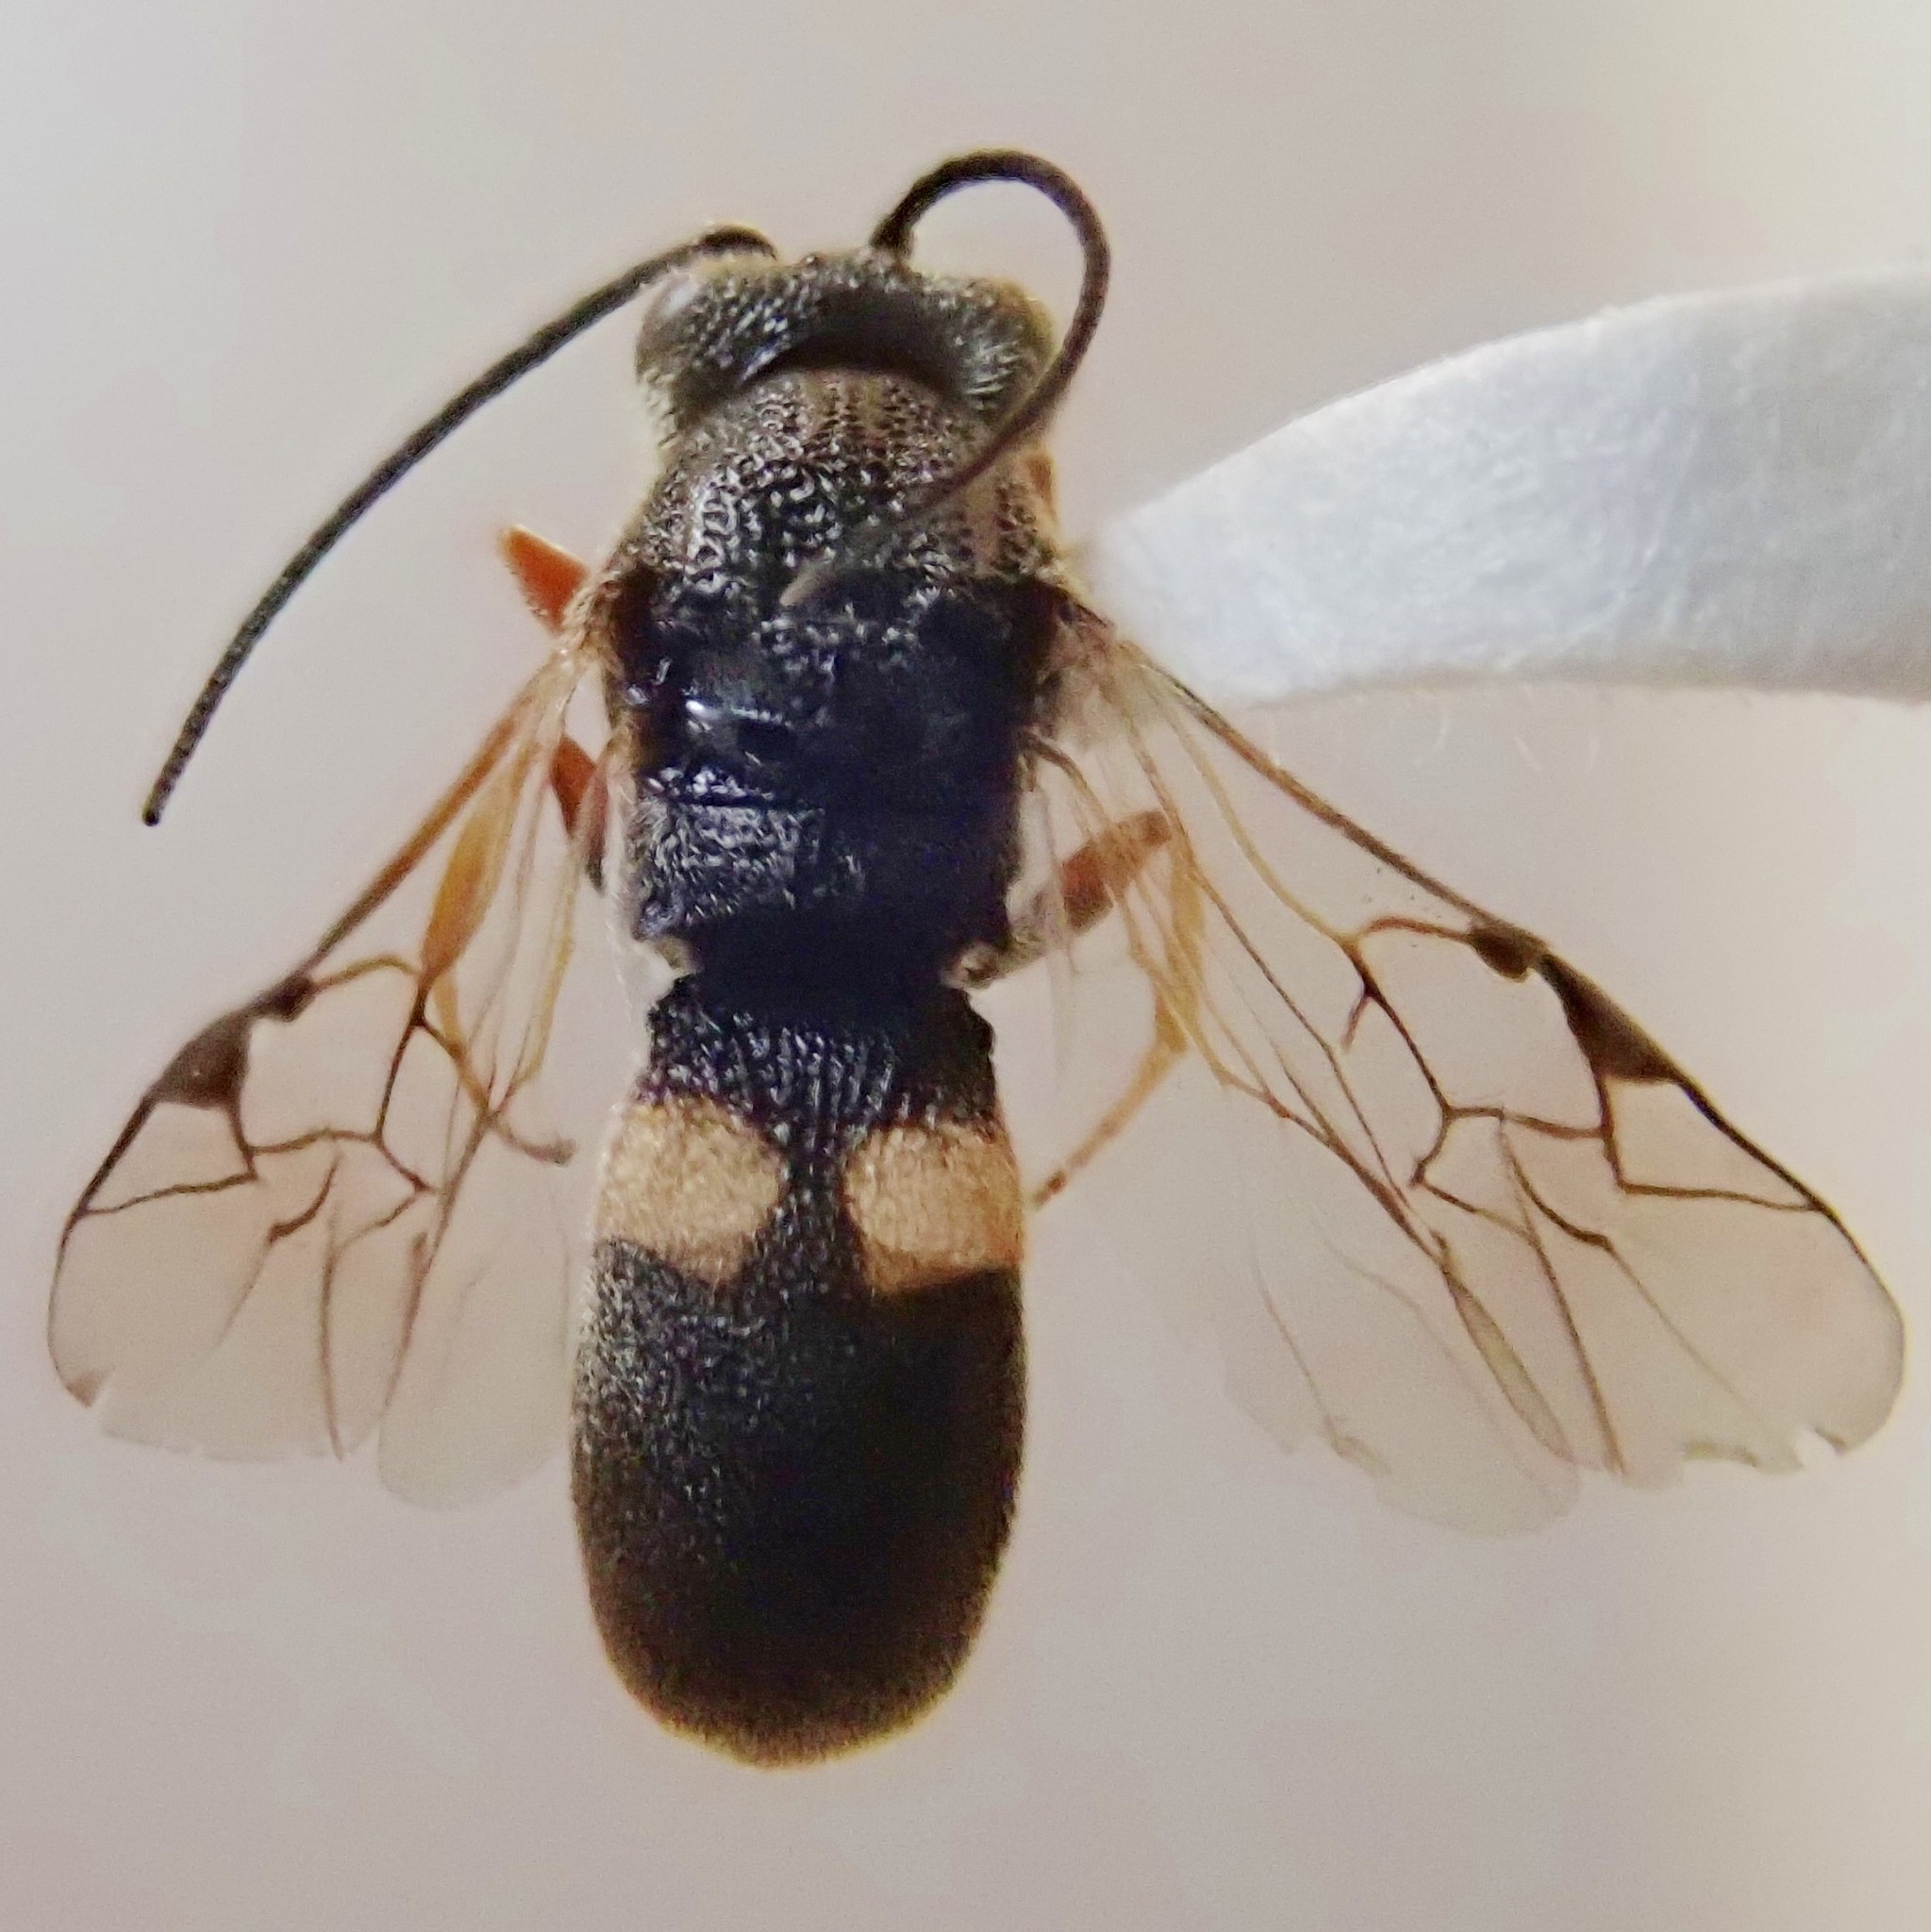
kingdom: Animalia
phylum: Arthropoda
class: Insecta
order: Hymenoptera
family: Braconidae
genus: Chelonus
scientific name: Chelonus formosanus
